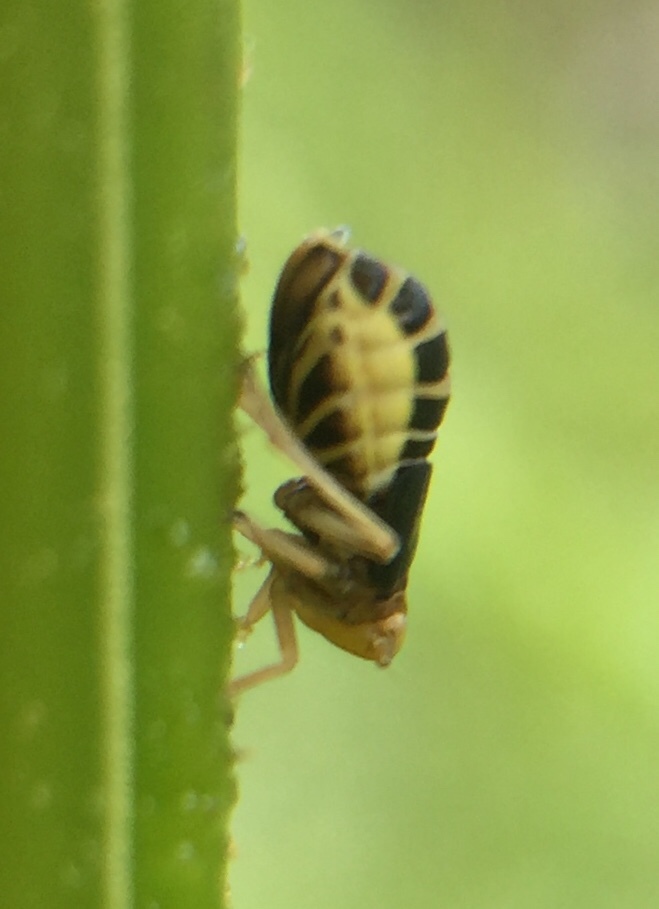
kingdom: Animalia
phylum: Arthropoda
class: Insecta
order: Hemiptera
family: Delphacidae
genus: Ditropis
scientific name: Ditropis pteridis
